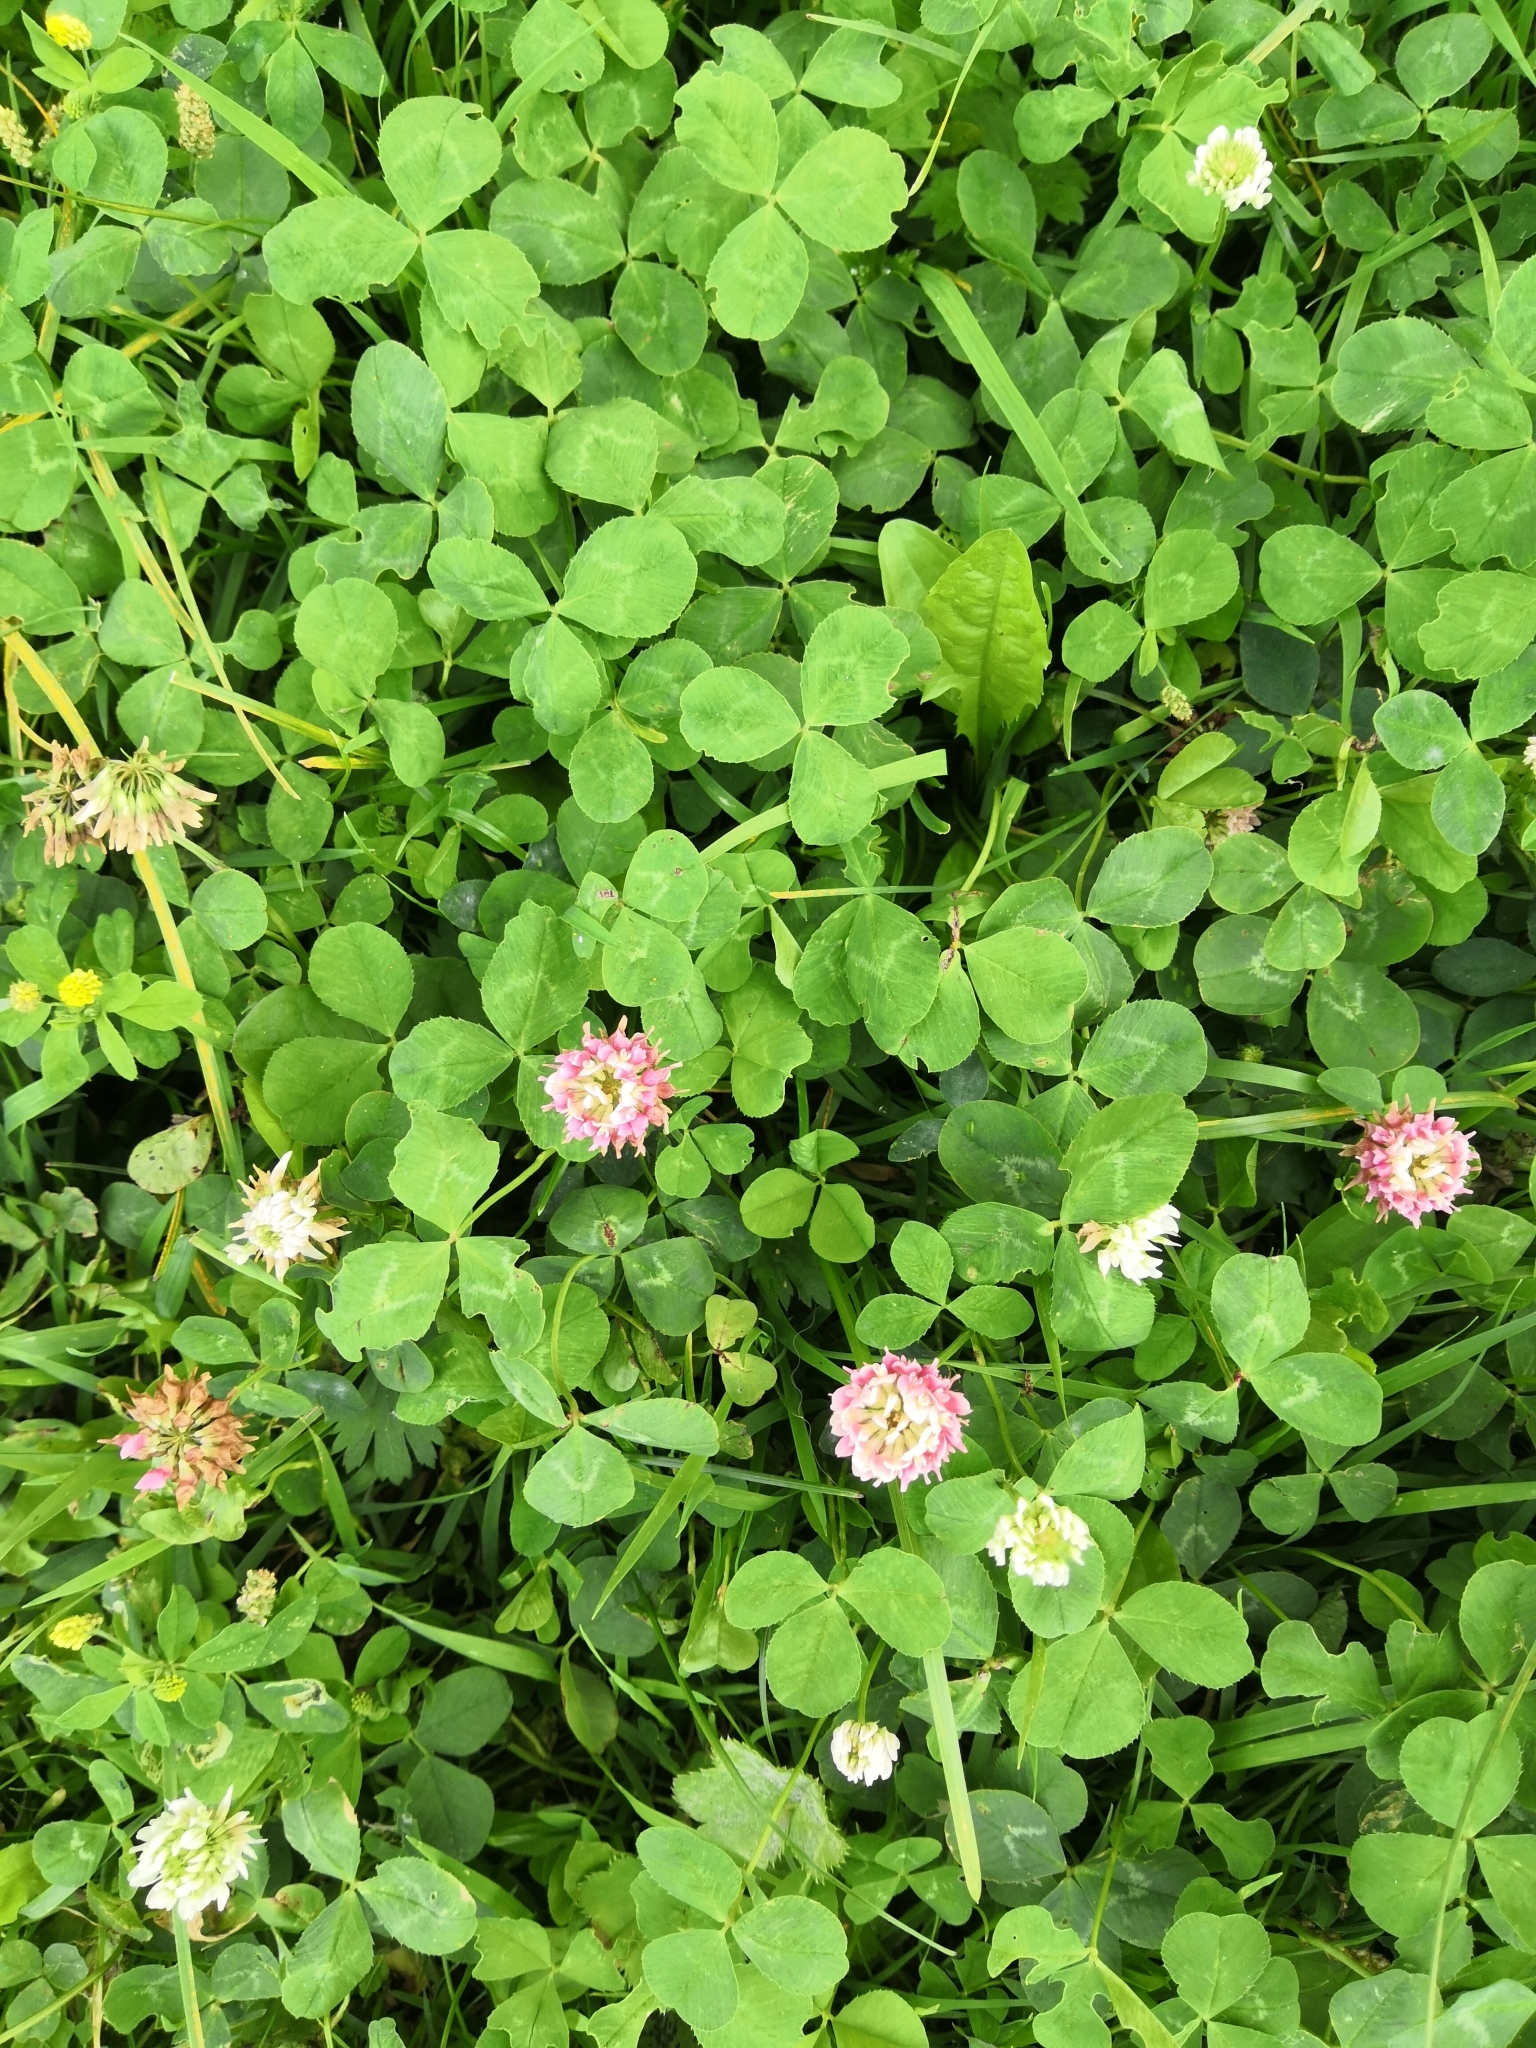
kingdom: Plantae
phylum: Tracheophyta
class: Magnoliopsida
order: Fabales
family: Fabaceae
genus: Trifolium
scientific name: Trifolium repens
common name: White clover
